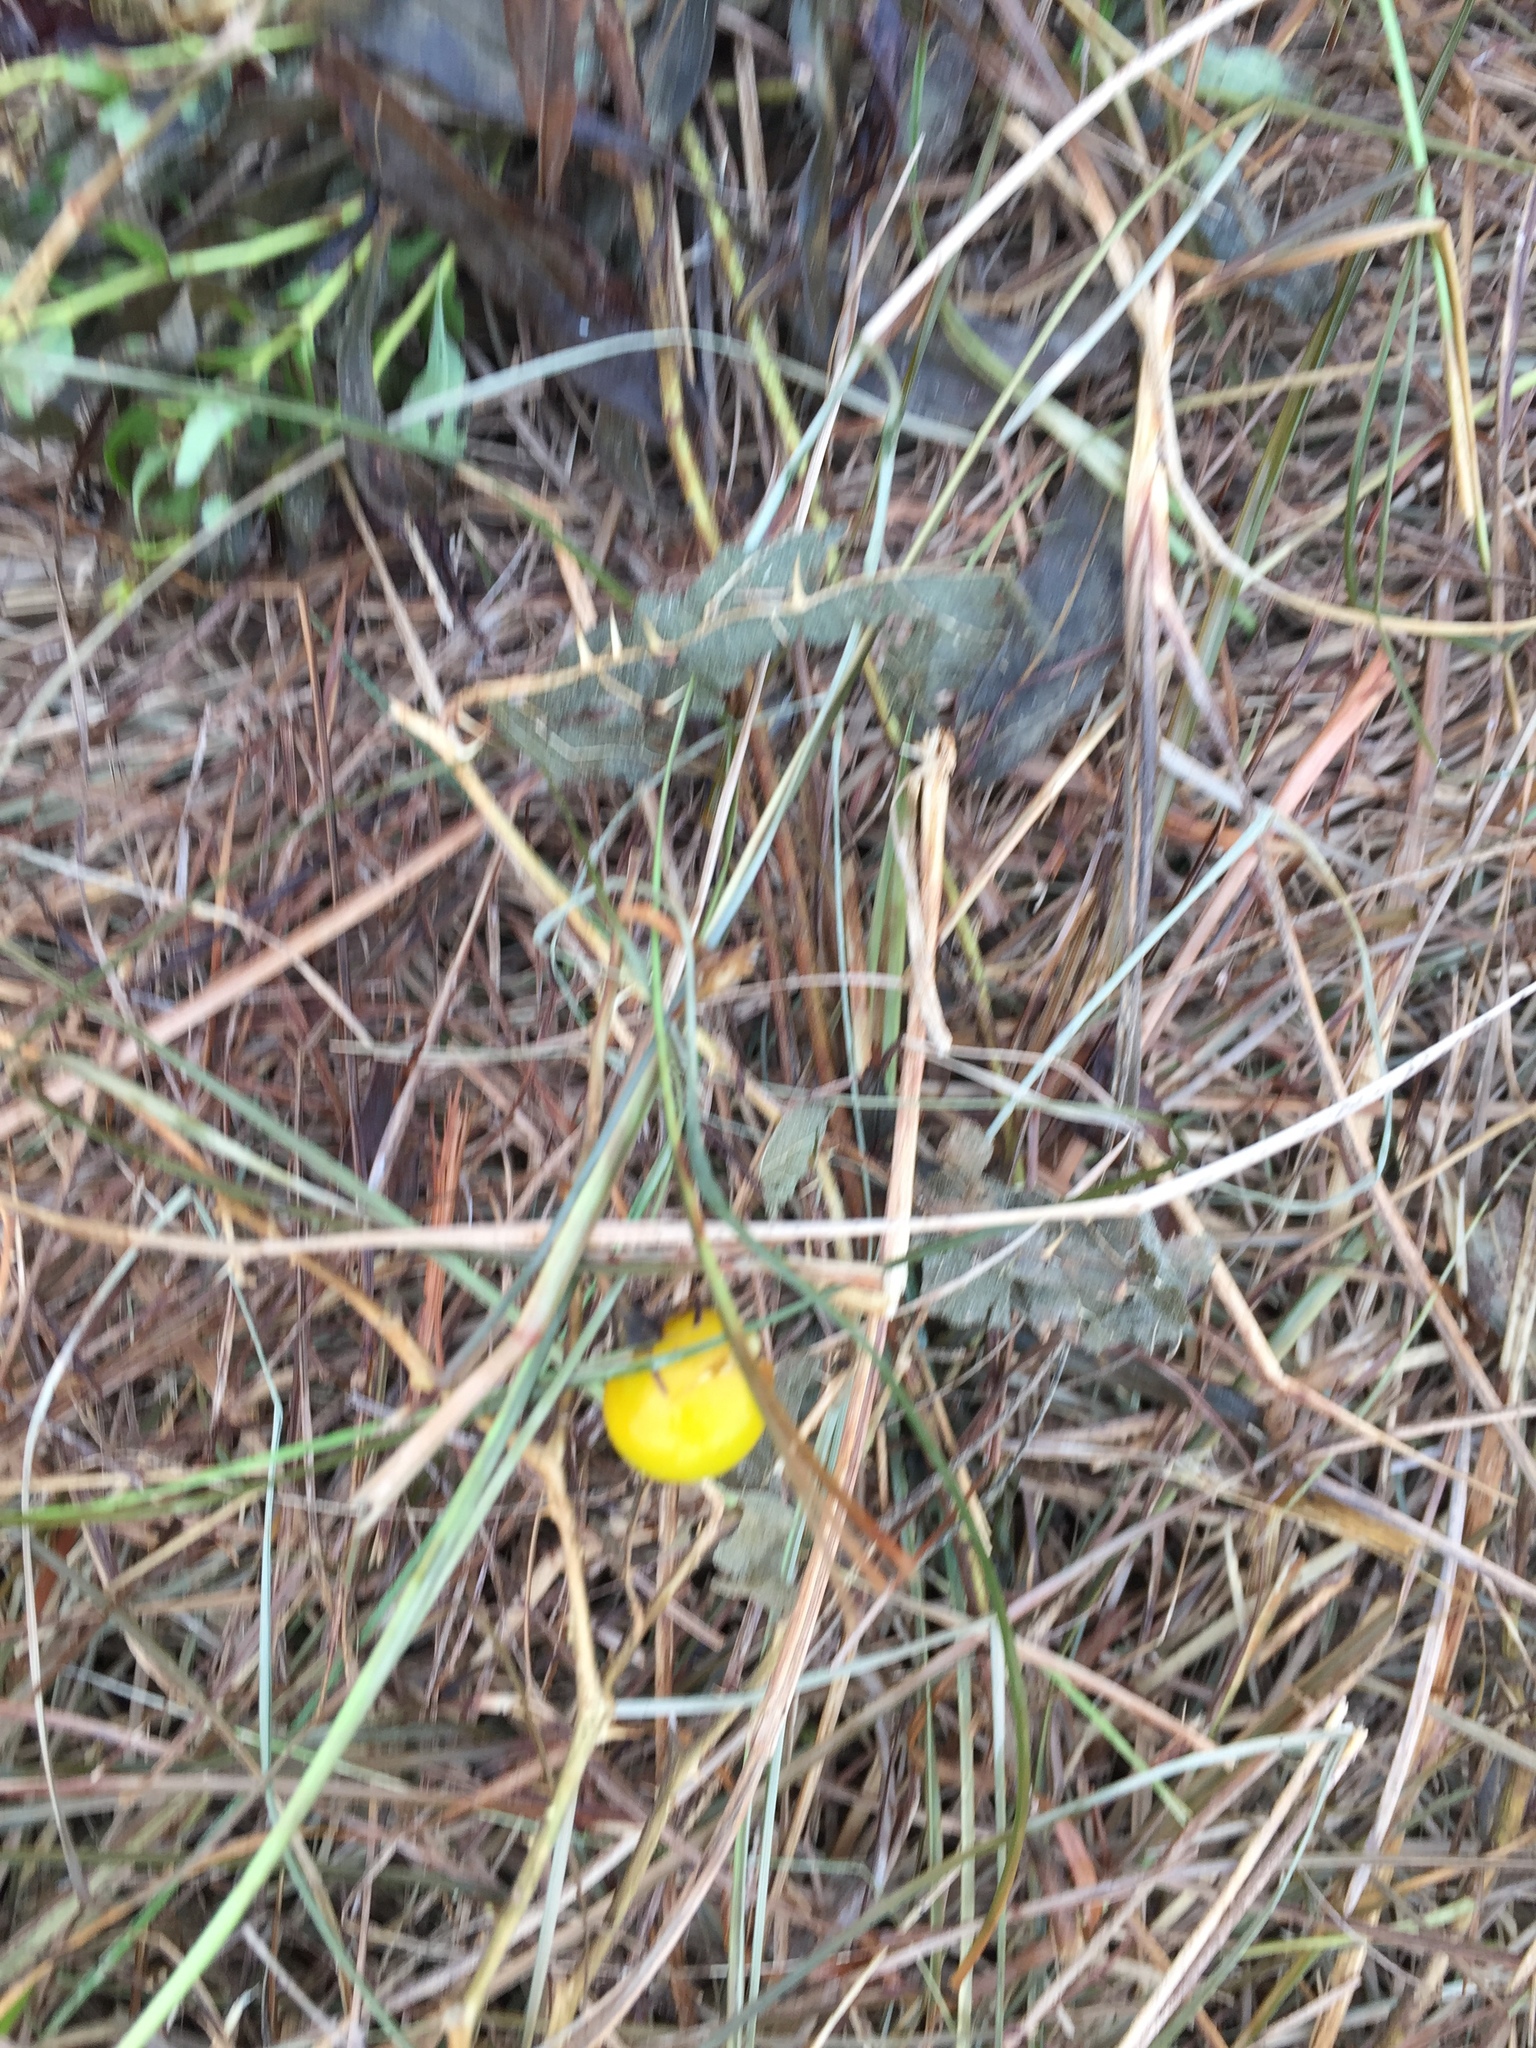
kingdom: Plantae
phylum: Tracheophyta
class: Magnoliopsida
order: Solanales
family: Solanaceae
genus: Solanum
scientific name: Solanum carolinense
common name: Horse-nettle
